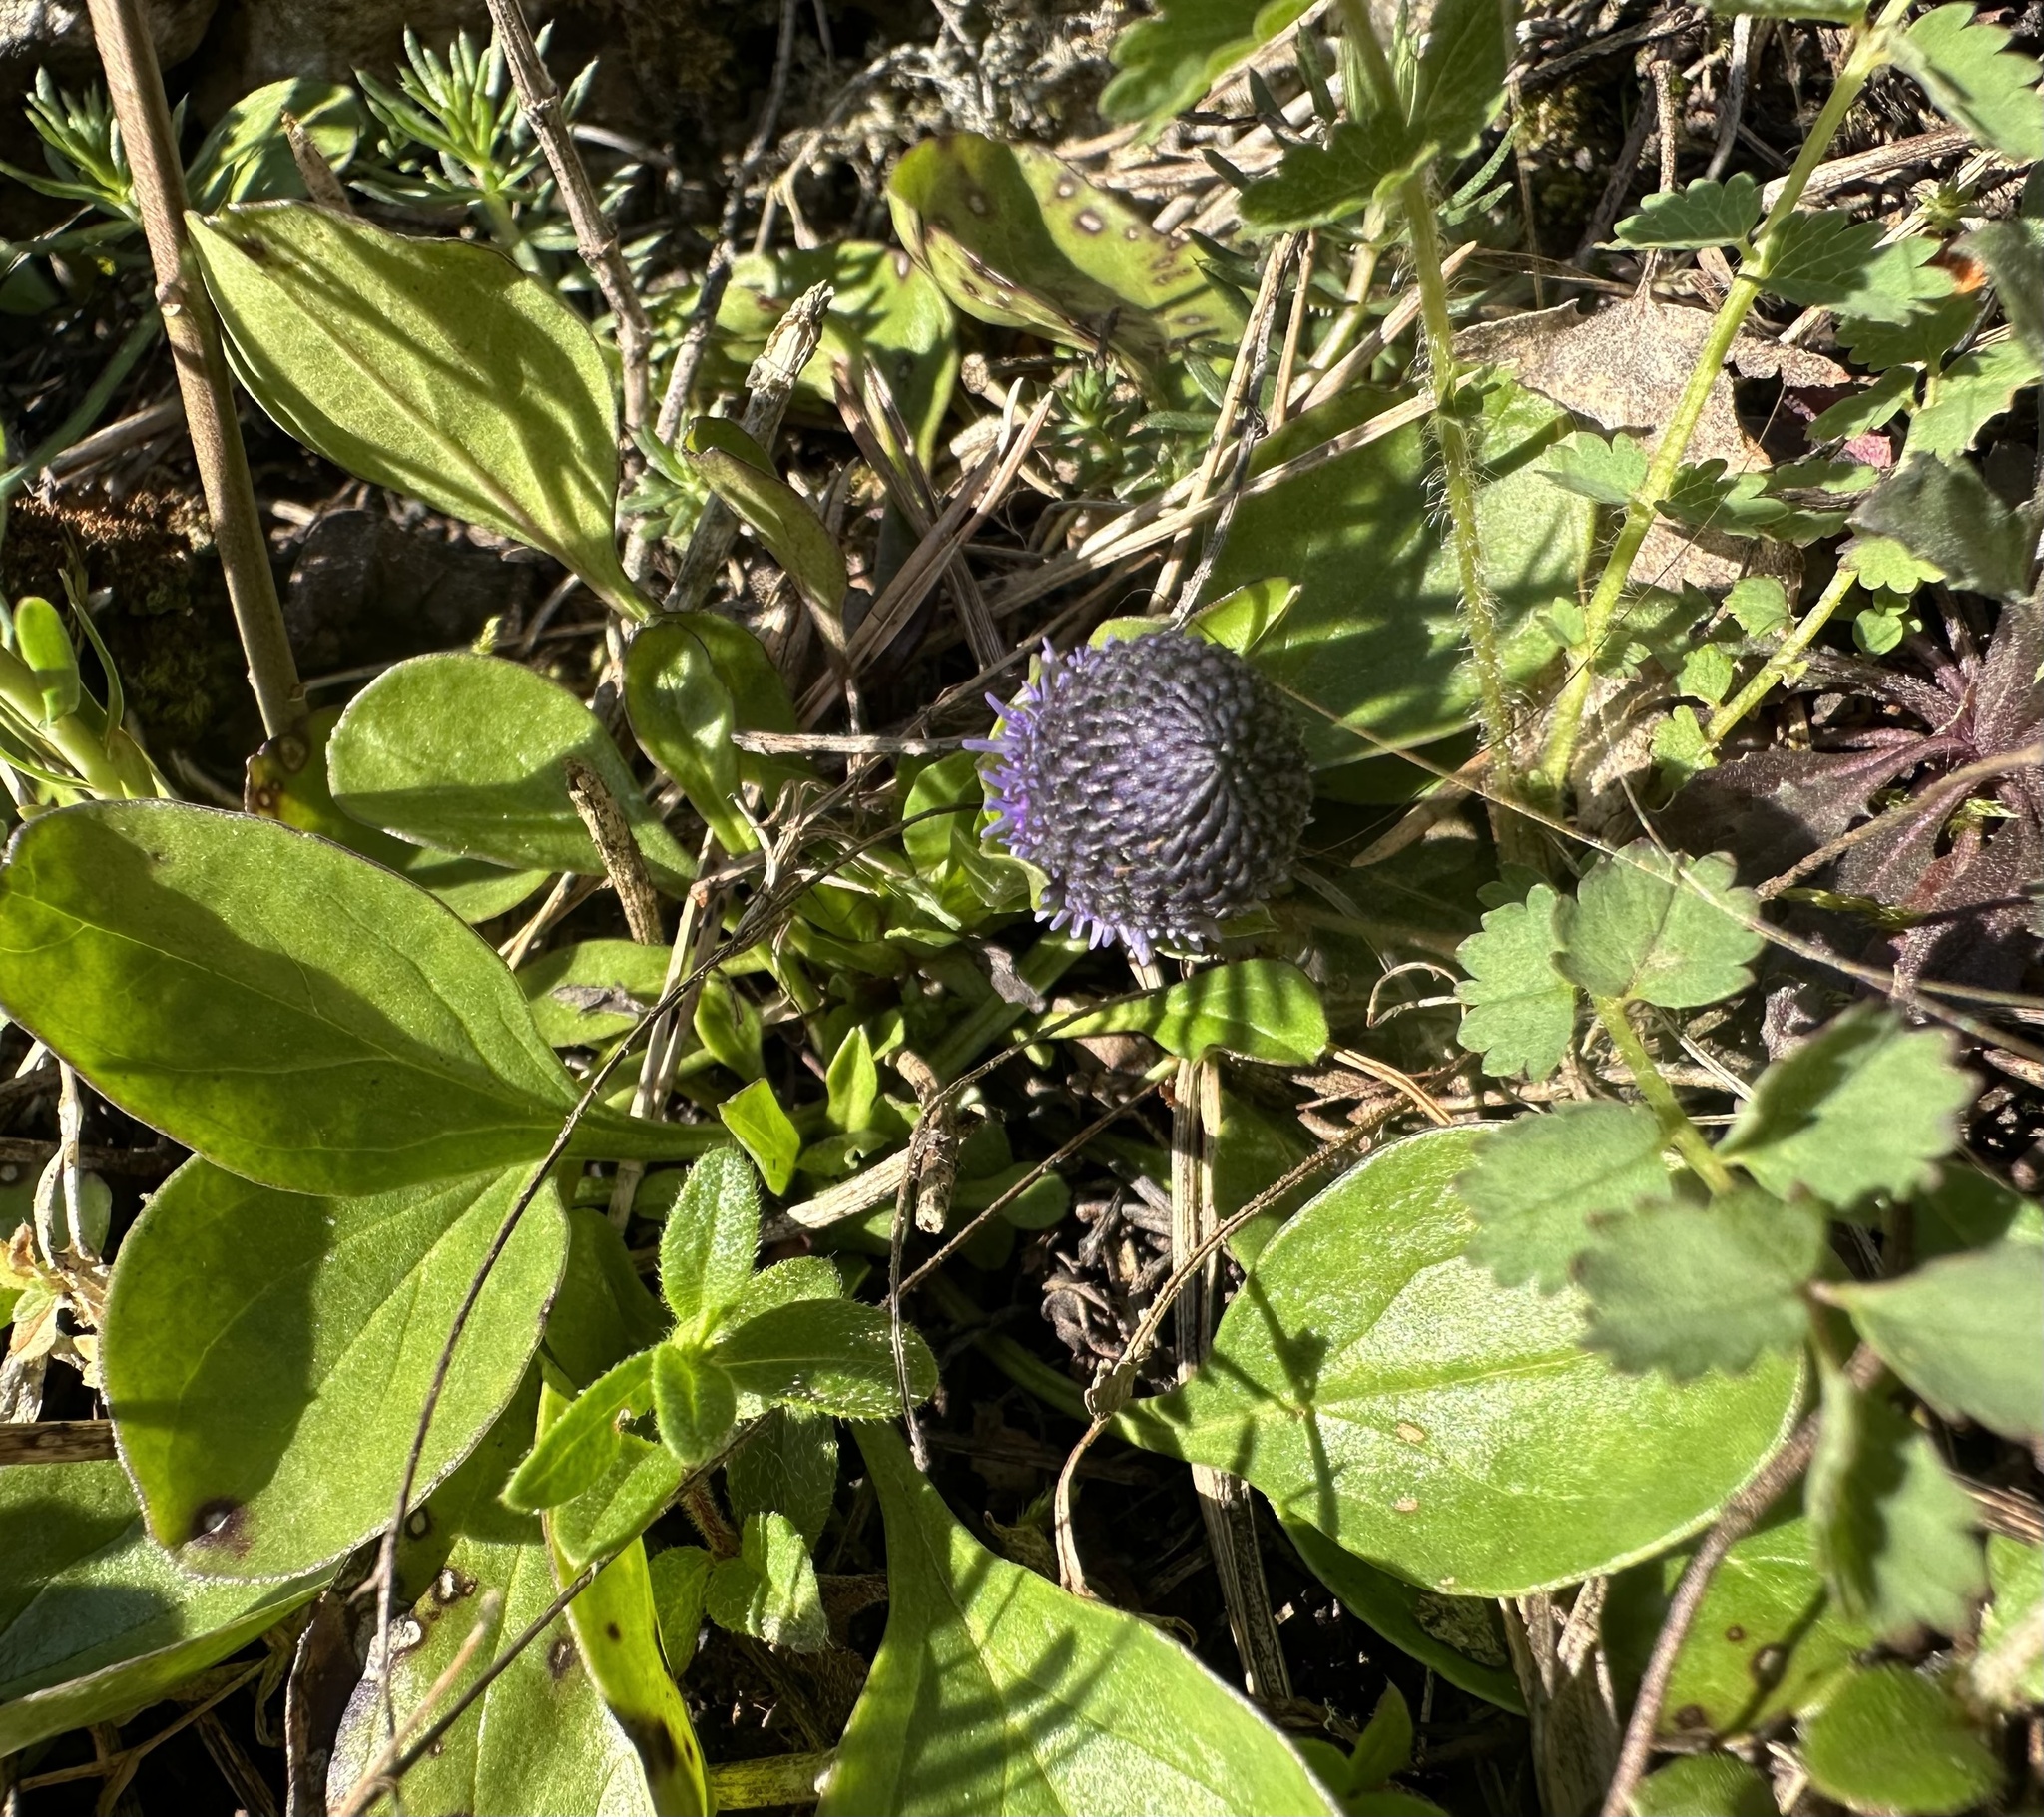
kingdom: Plantae
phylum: Tracheophyta
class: Magnoliopsida
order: Lamiales
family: Plantaginaceae
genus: Globularia
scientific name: Globularia bisnagarica
